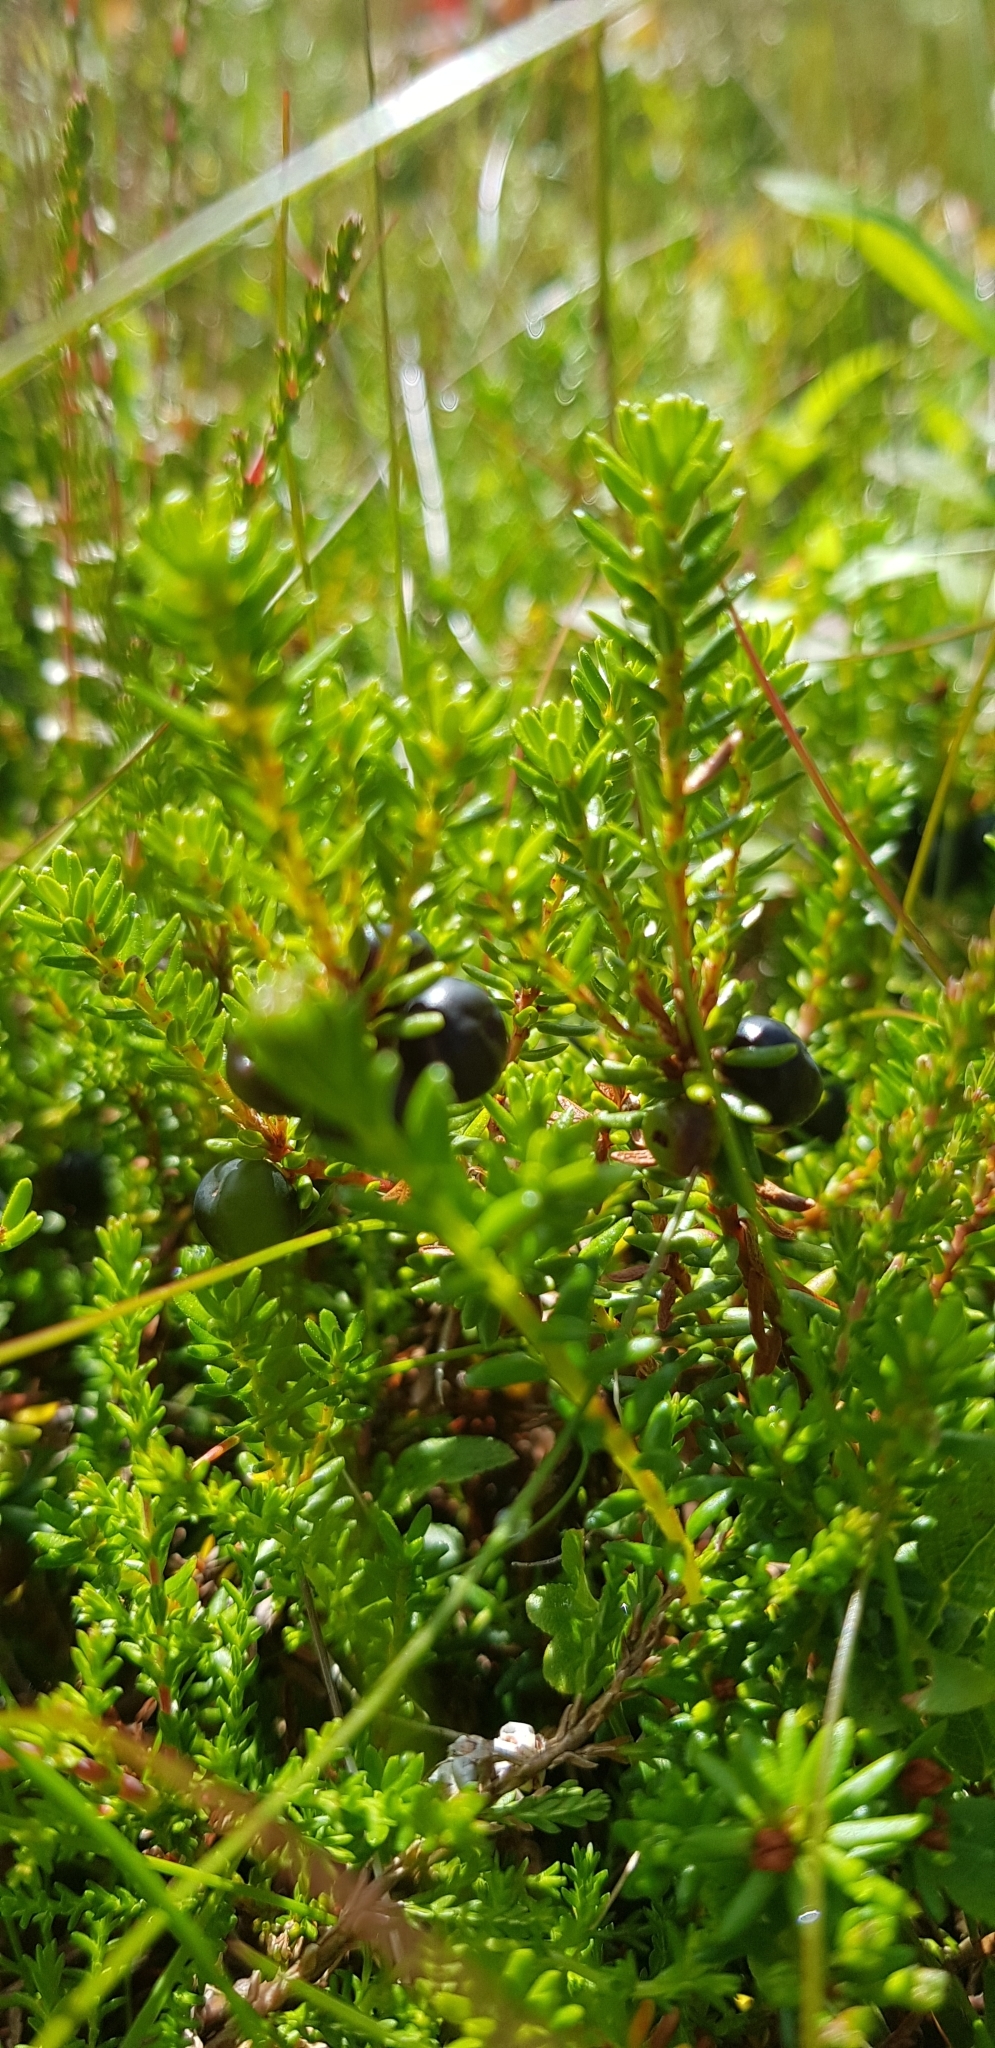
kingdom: Plantae
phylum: Tracheophyta
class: Magnoliopsida
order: Ericales
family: Ericaceae
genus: Empetrum
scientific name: Empetrum nigrum
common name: Black crowberry
